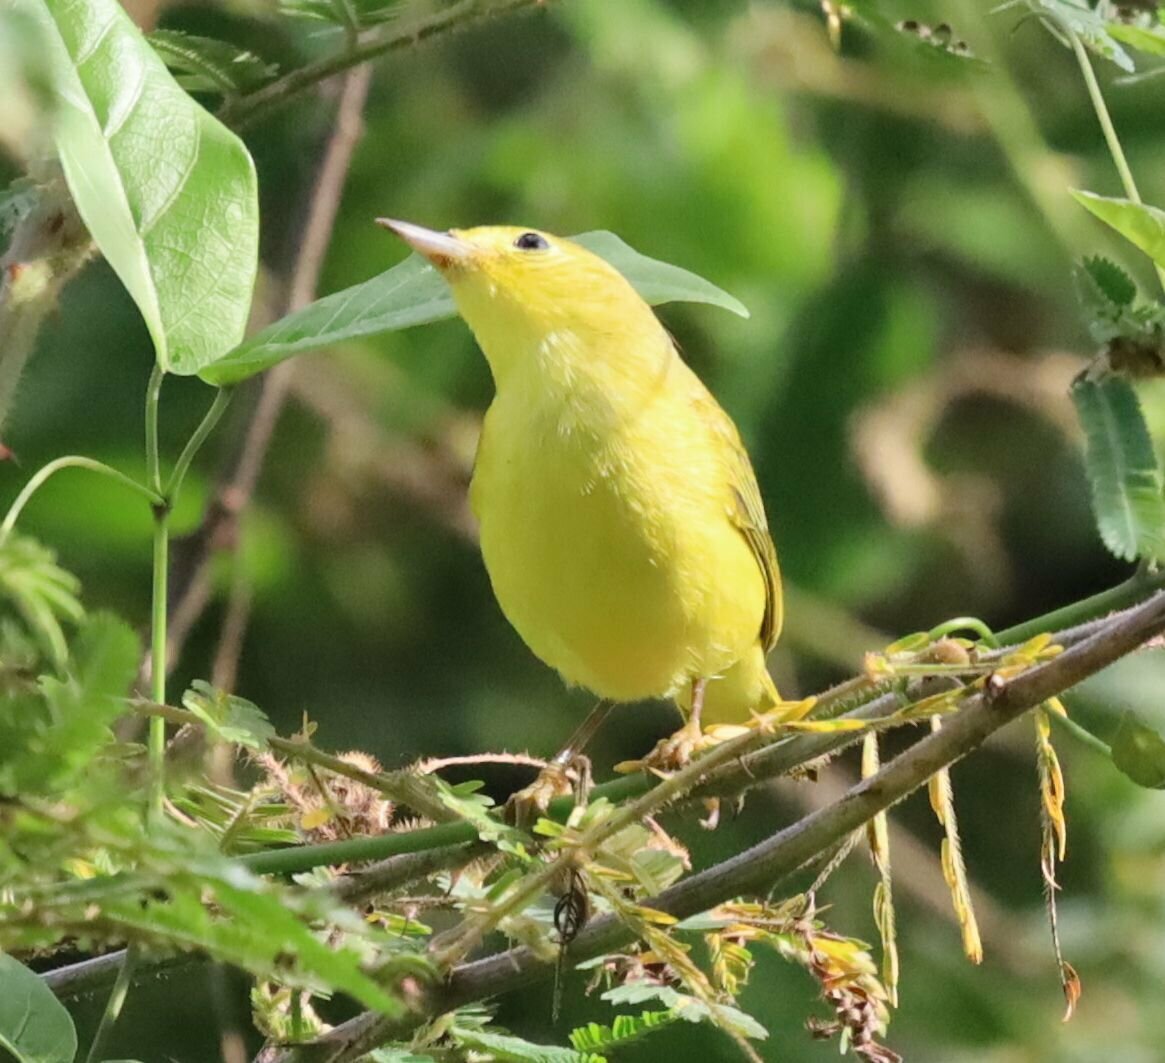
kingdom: Animalia
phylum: Chordata
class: Aves
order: Passeriformes
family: Parulidae
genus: Setophaga
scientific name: Setophaga petechia
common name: Yellow warbler
